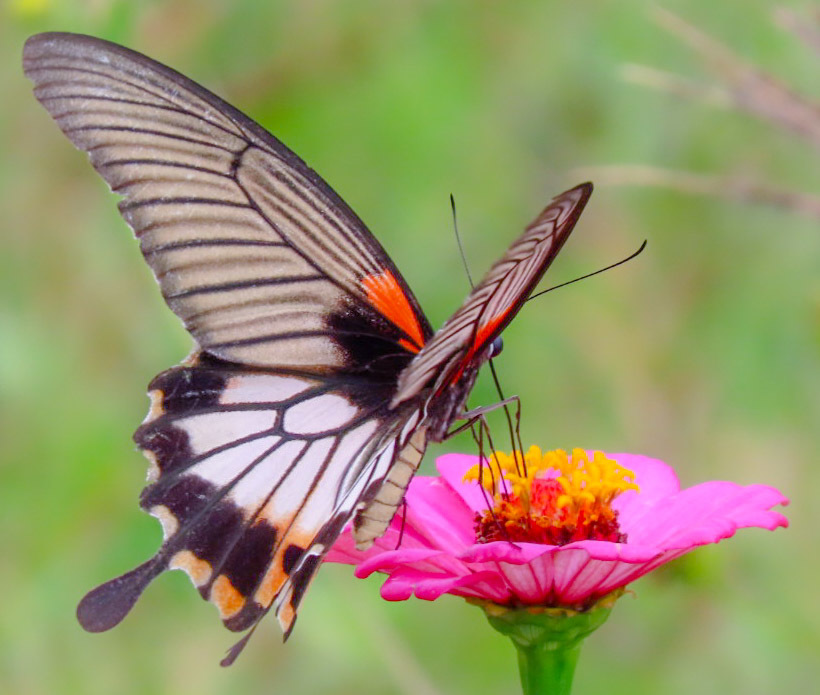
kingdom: Animalia
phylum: Arthropoda
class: Insecta
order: Lepidoptera
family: Papilionidae
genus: Papilio
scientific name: Papilio memnon
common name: Great mormon
